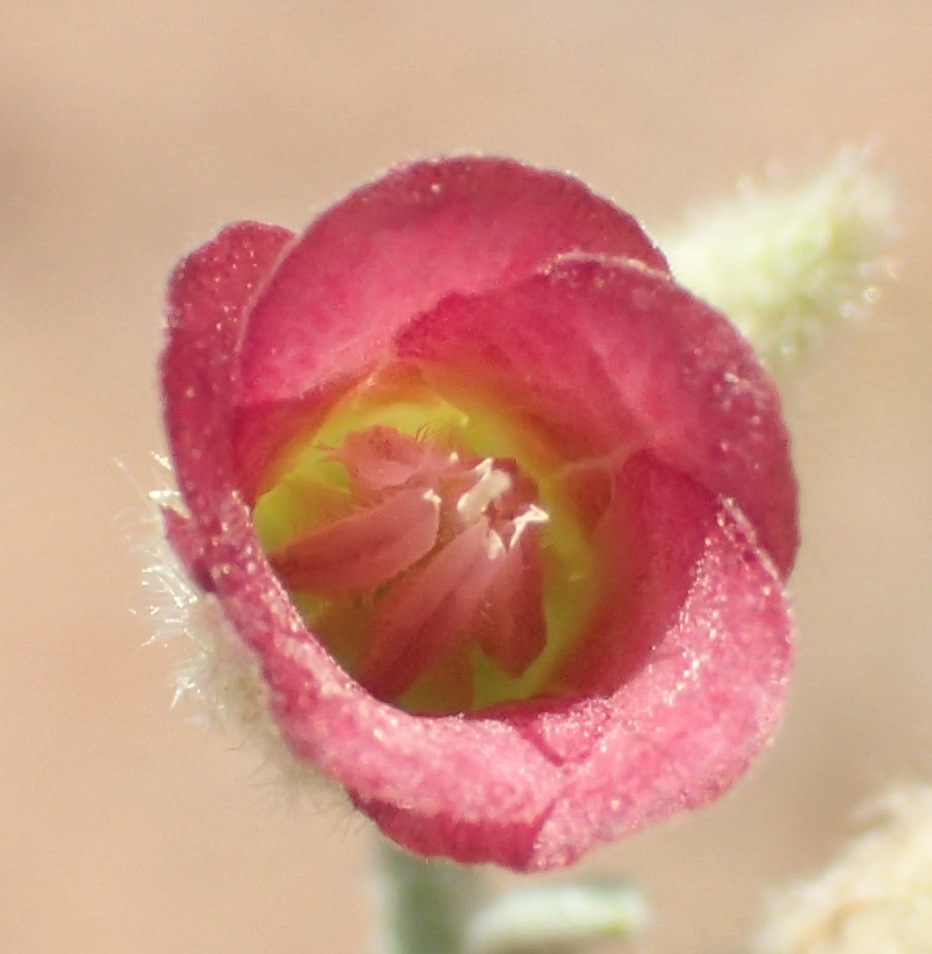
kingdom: Plantae
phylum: Tracheophyta
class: Magnoliopsida
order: Malvales
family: Malvaceae
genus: Hermannia
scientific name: Hermannia gariepina
